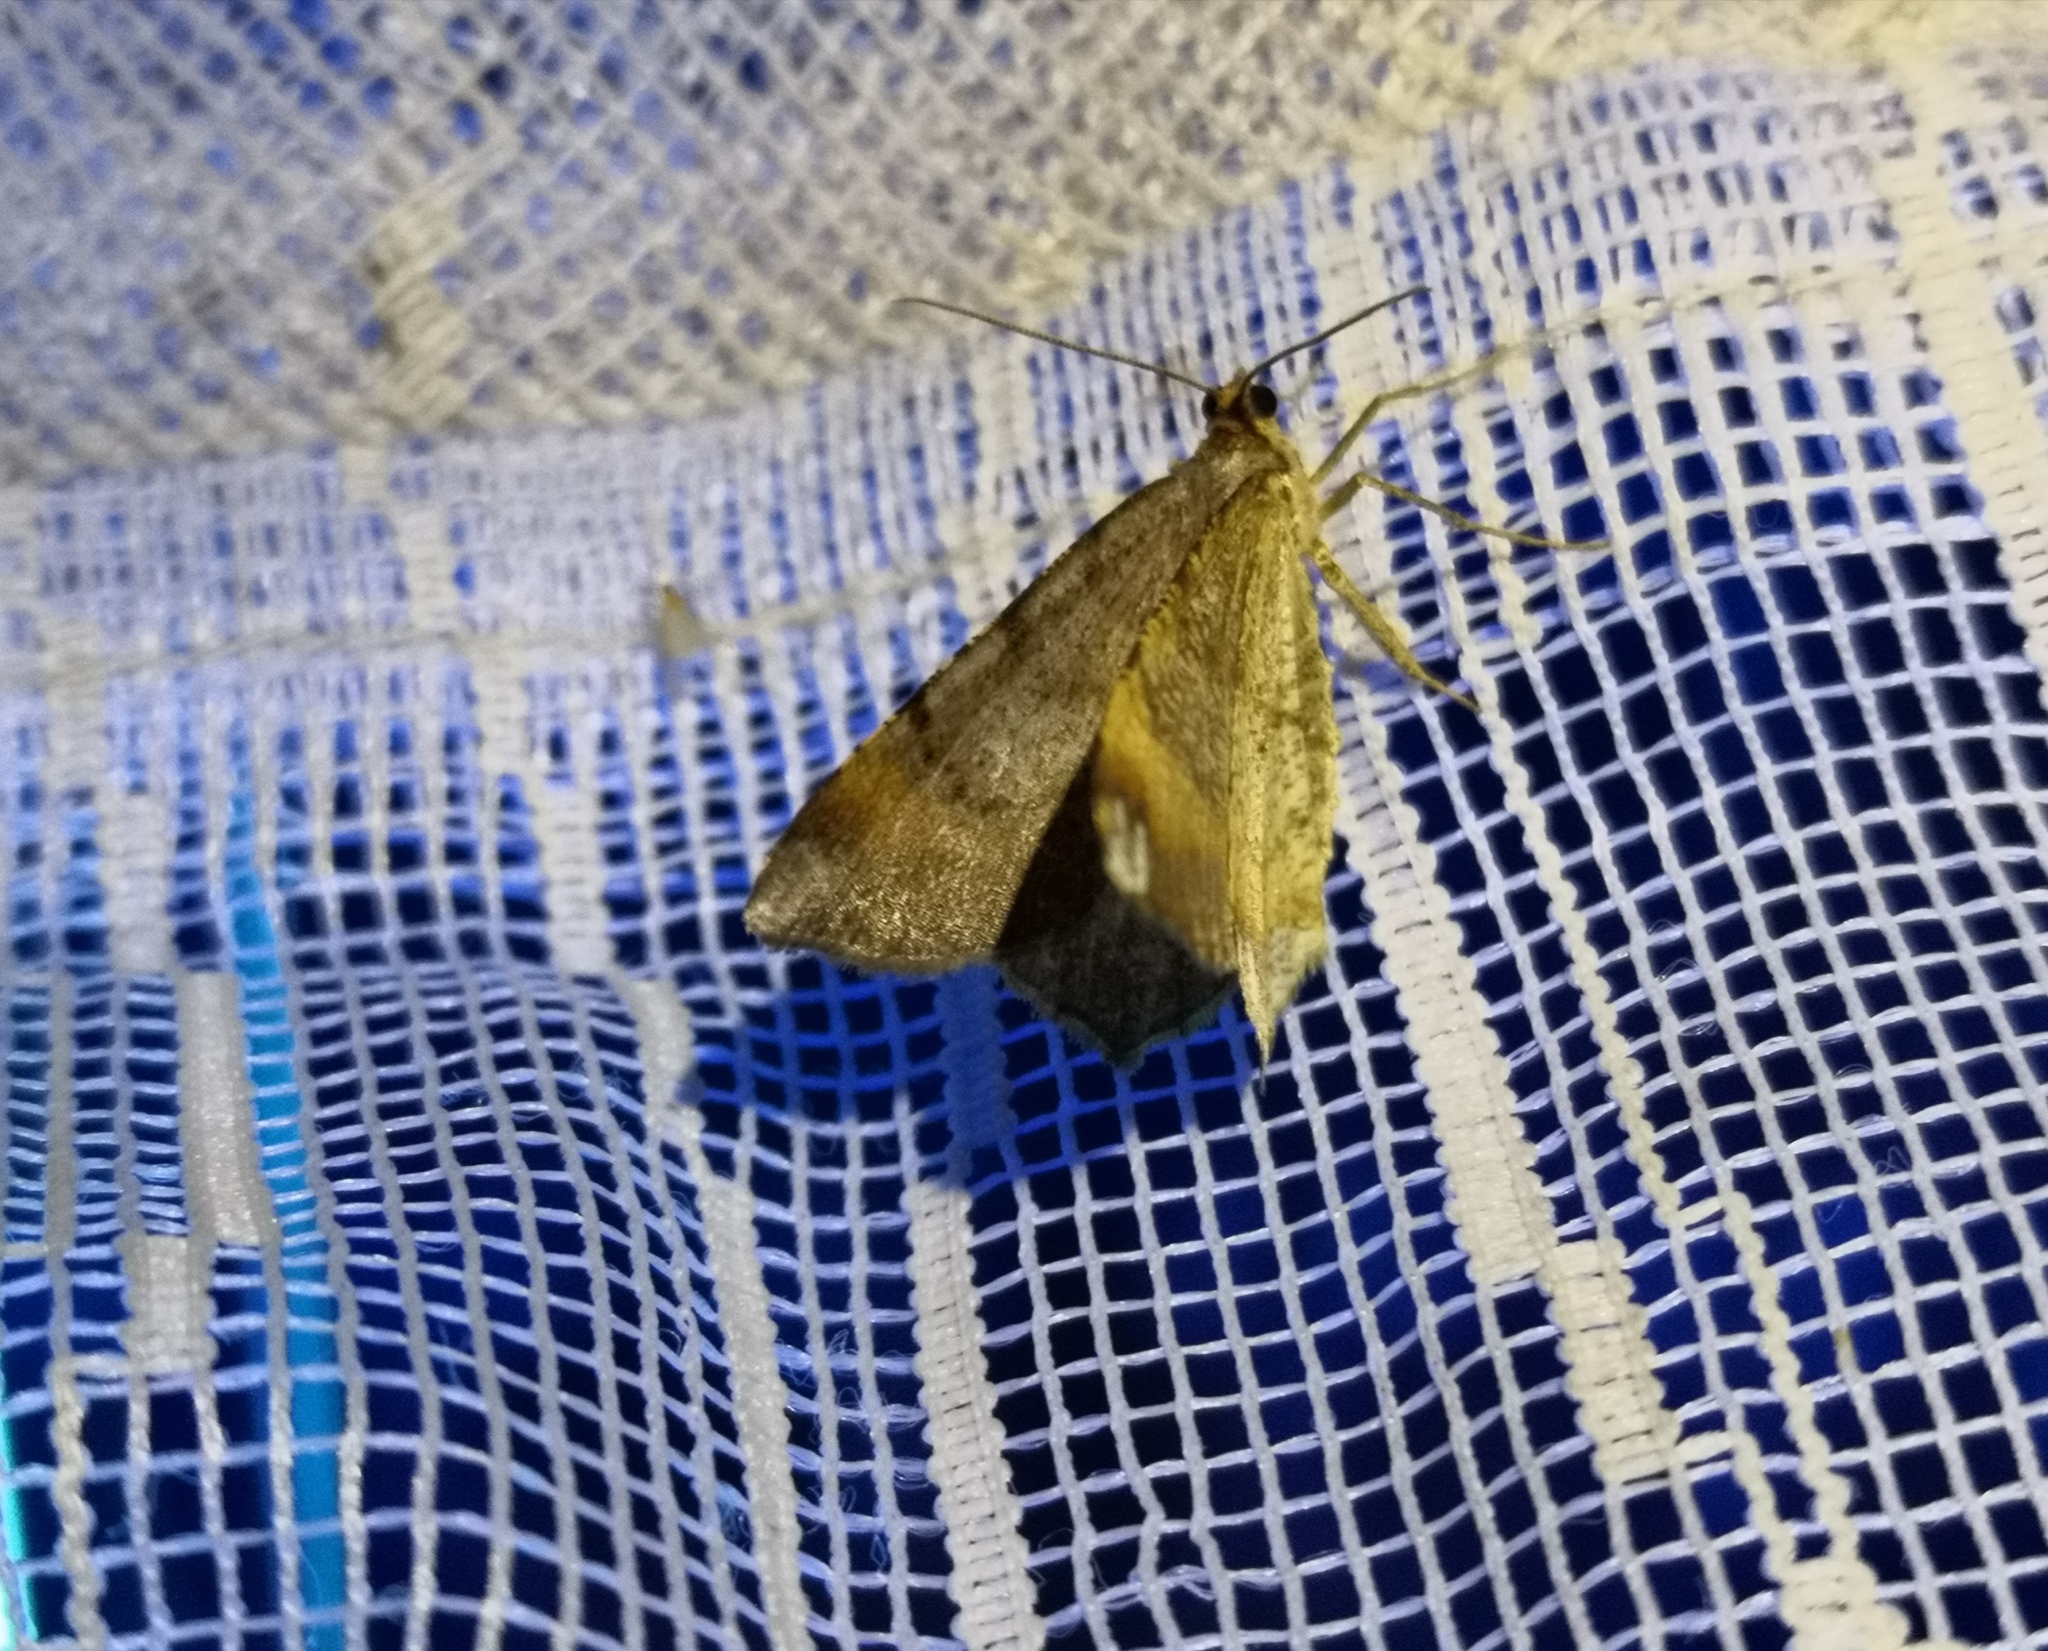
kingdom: Animalia
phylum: Arthropoda
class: Insecta
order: Lepidoptera
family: Geometridae
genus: Macaria
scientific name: Macaria liturata
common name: Tawny-barred angle
